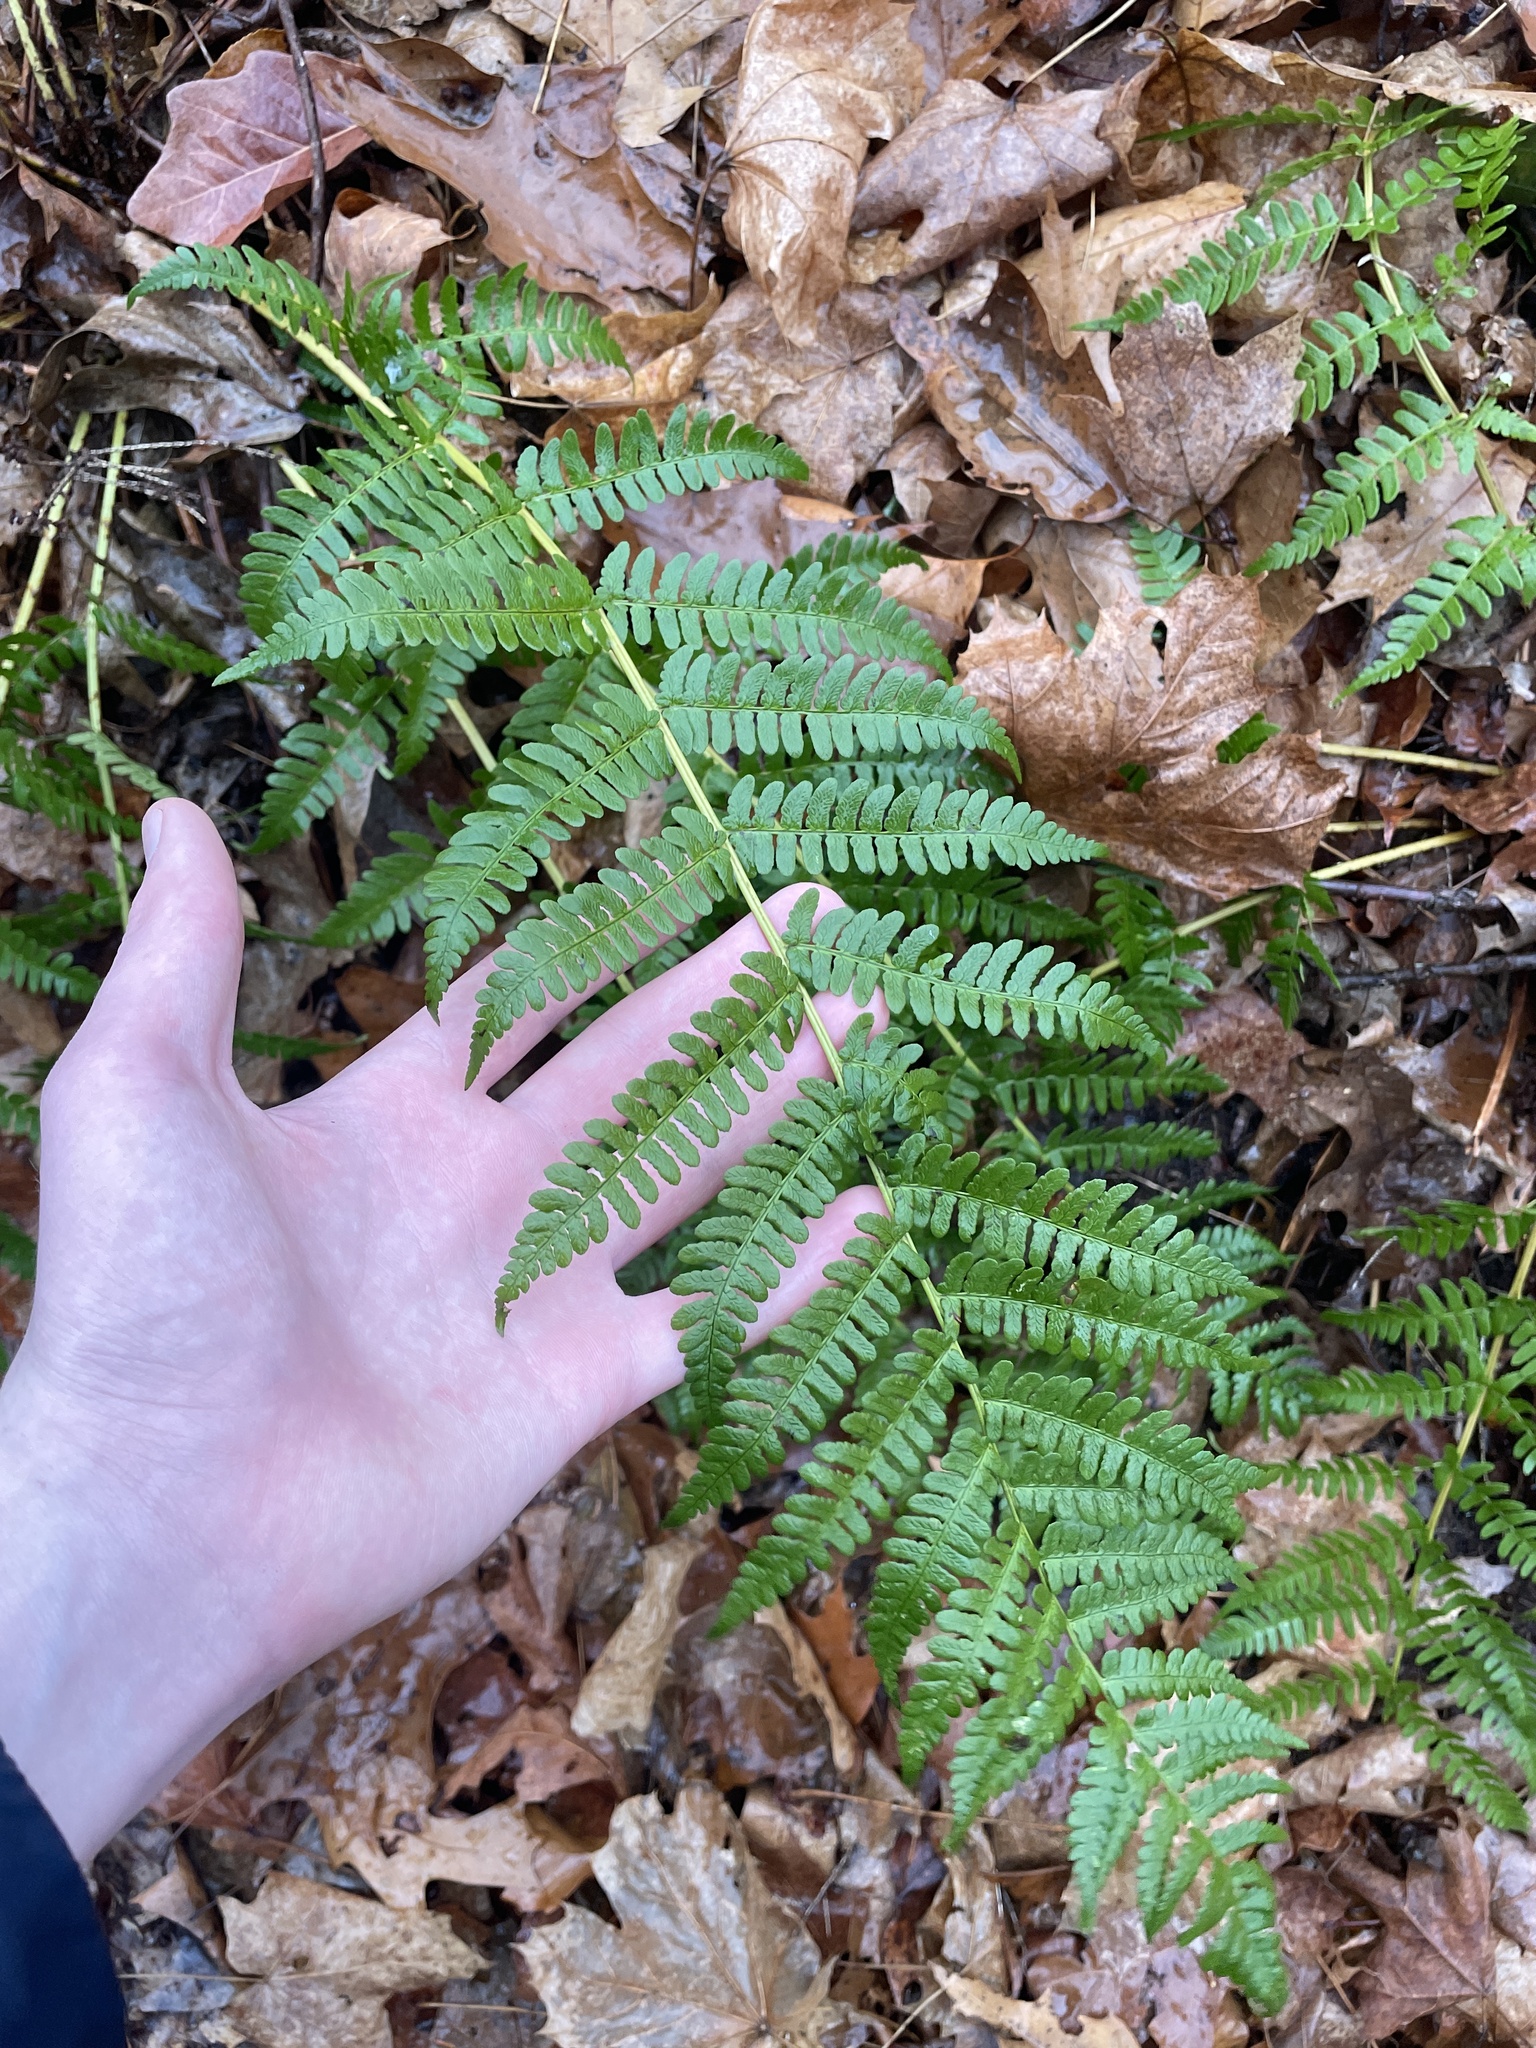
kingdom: Plantae
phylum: Tracheophyta
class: Polypodiopsida
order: Polypodiales
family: Dryopteridaceae
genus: Dryopteris
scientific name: Dryopteris marginalis
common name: Marginal wood fern
